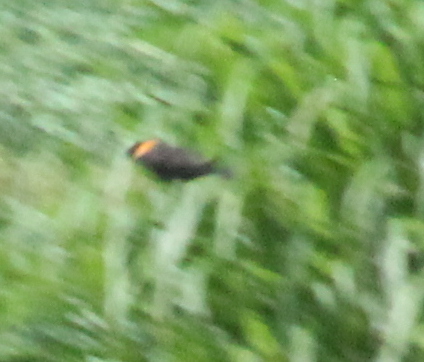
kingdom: Animalia
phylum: Chordata
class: Aves
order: Passeriformes
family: Icteridae
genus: Agelaius
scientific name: Agelaius phoeniceus
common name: Red-winged blackbird
